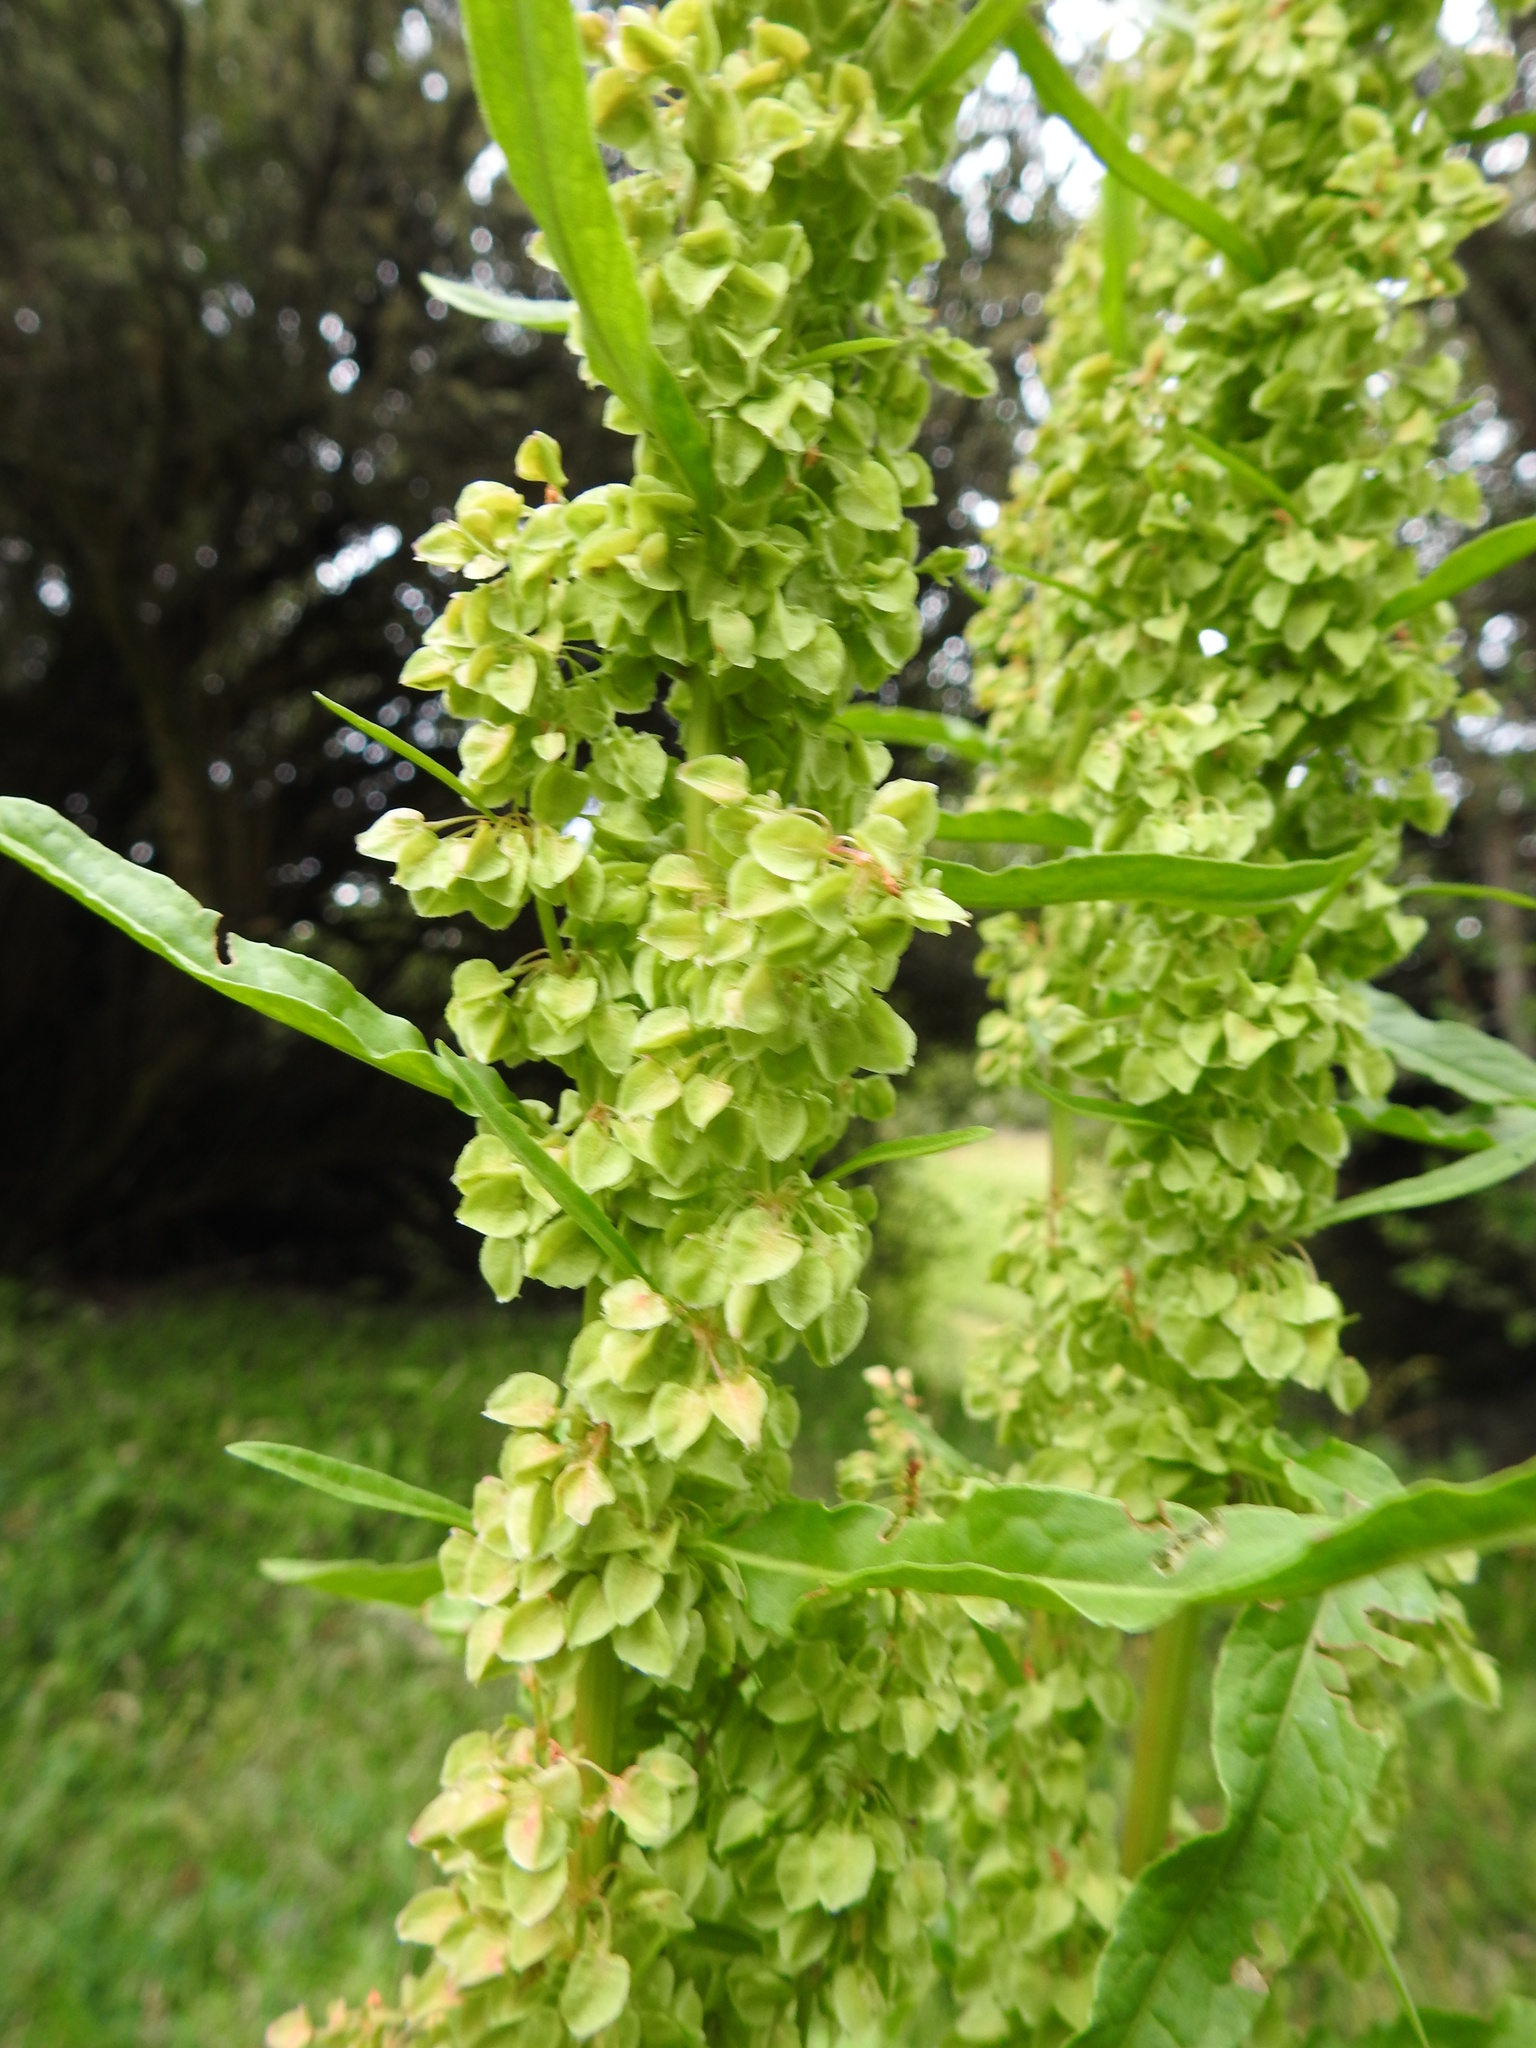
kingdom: Plantae
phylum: Tracheophyta
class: Magnoliopsida
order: Caryophyllales
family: Polygonaceae
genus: Rumex
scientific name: Rumex crispus
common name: Curled dock
